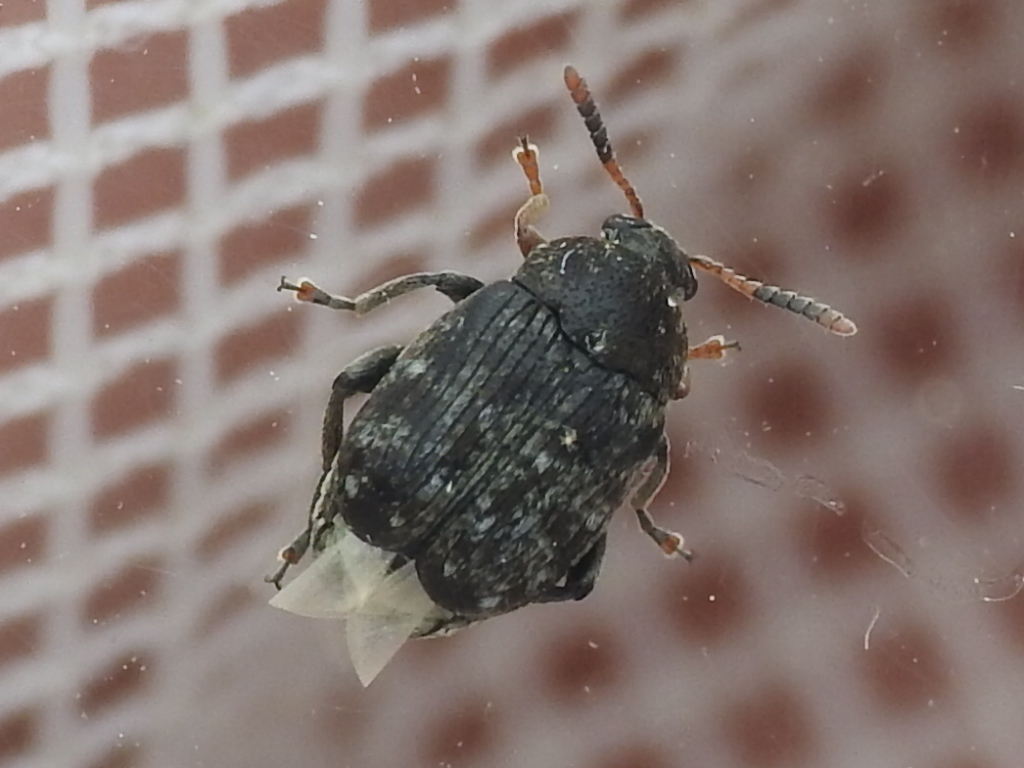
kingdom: Animalia
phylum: Arthropoda
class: Insecta
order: Coleoptera
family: Chrysomelidae
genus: Bruchus
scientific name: Bruchus brachialis
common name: Vetch bruchid
